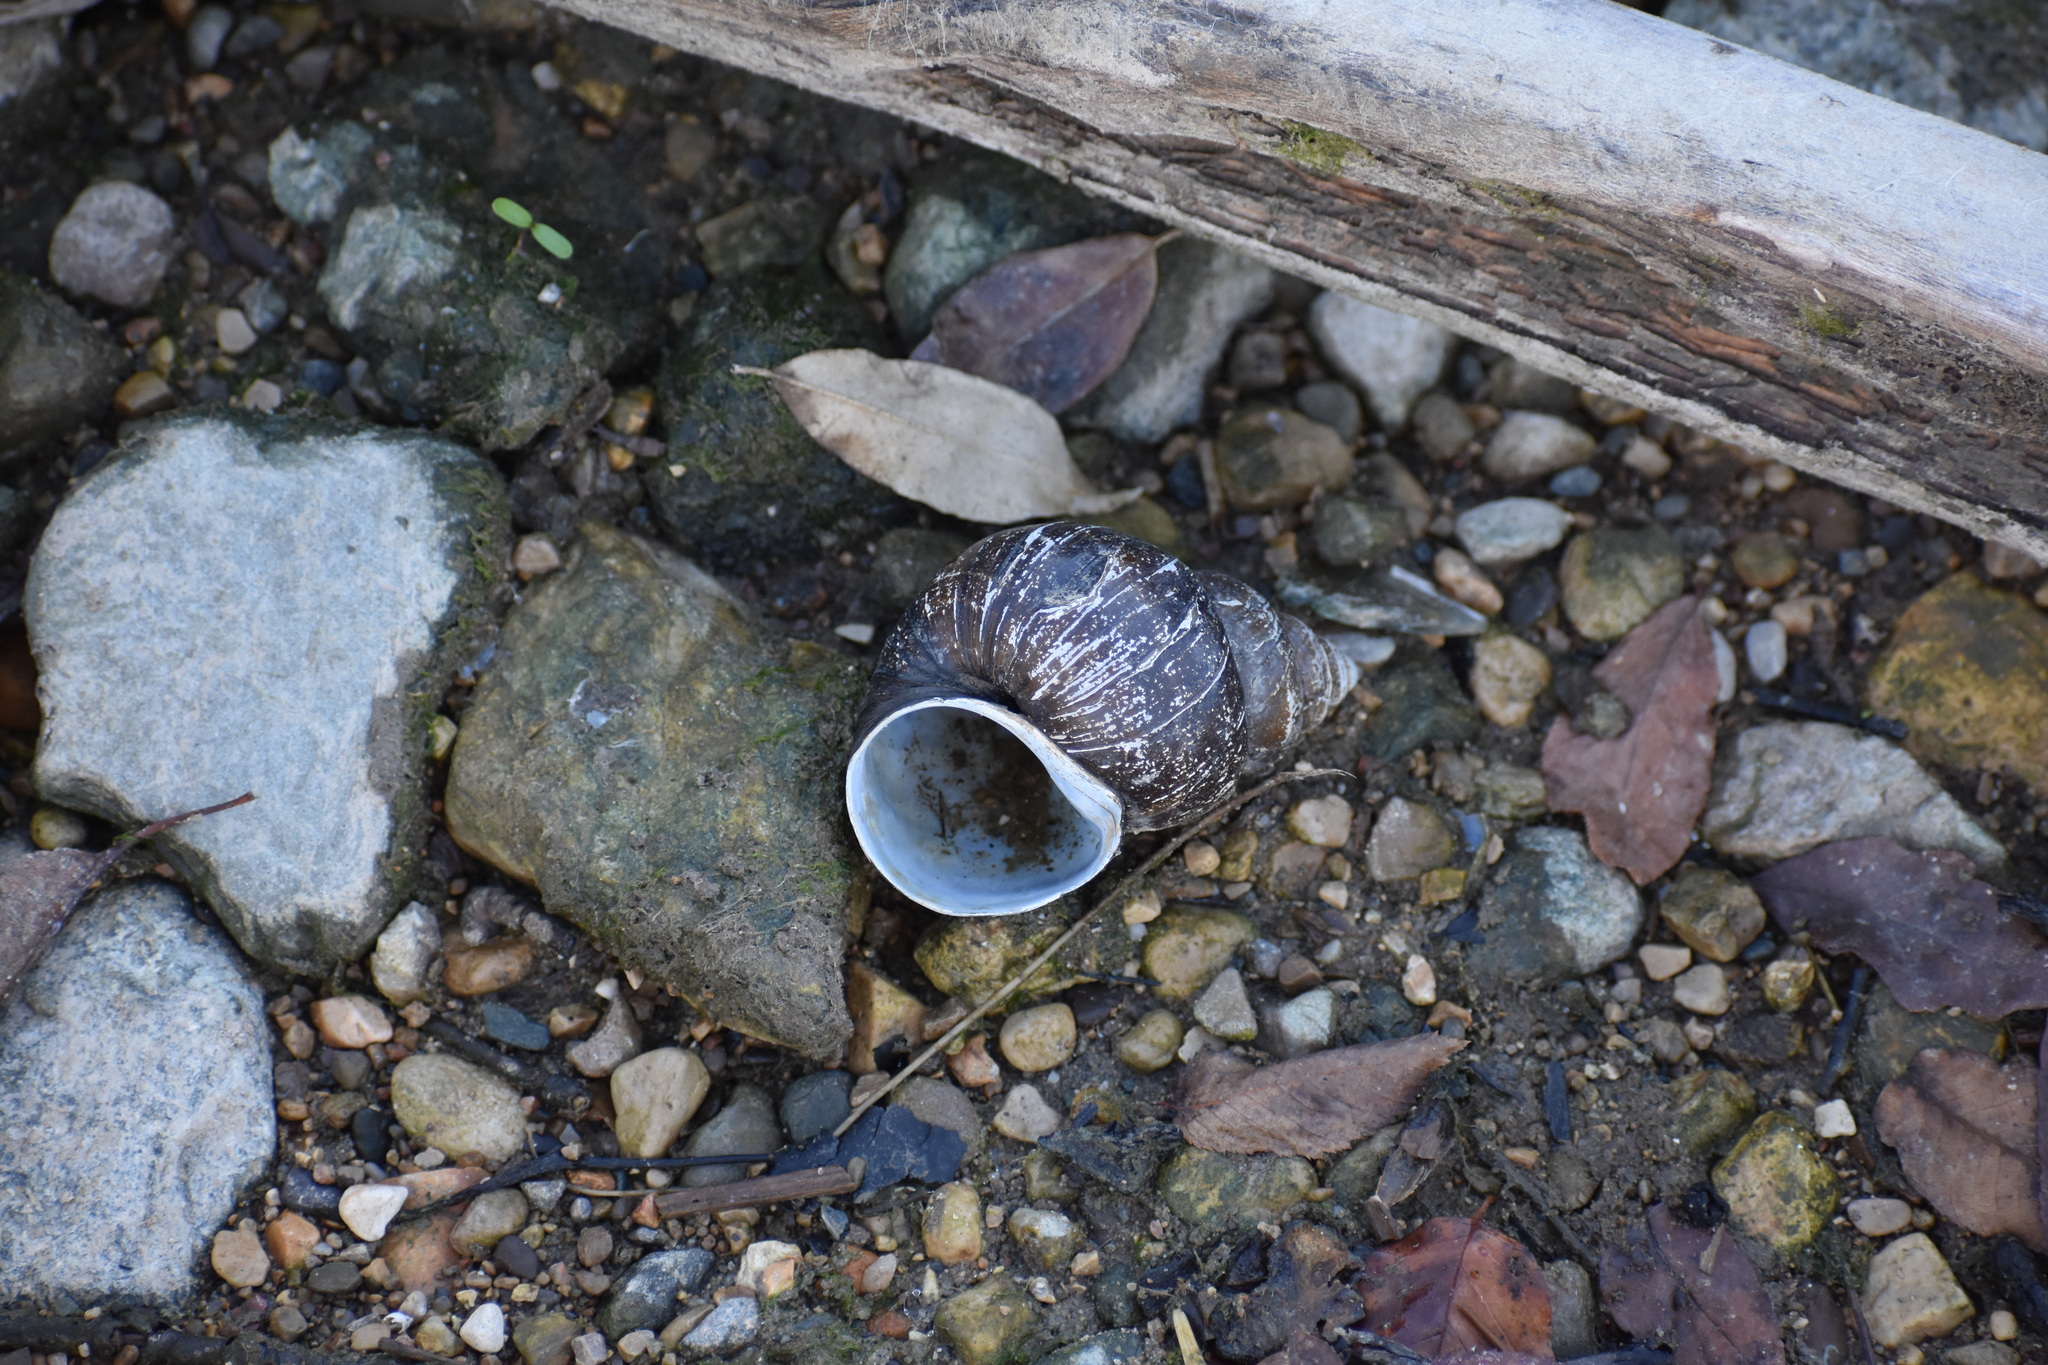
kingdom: Animalia
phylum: Mollusca
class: Gastropoda
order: Architaenioglossa
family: Viviparidae
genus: Cipangopaludina
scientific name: Cipangopaludina chinensis
